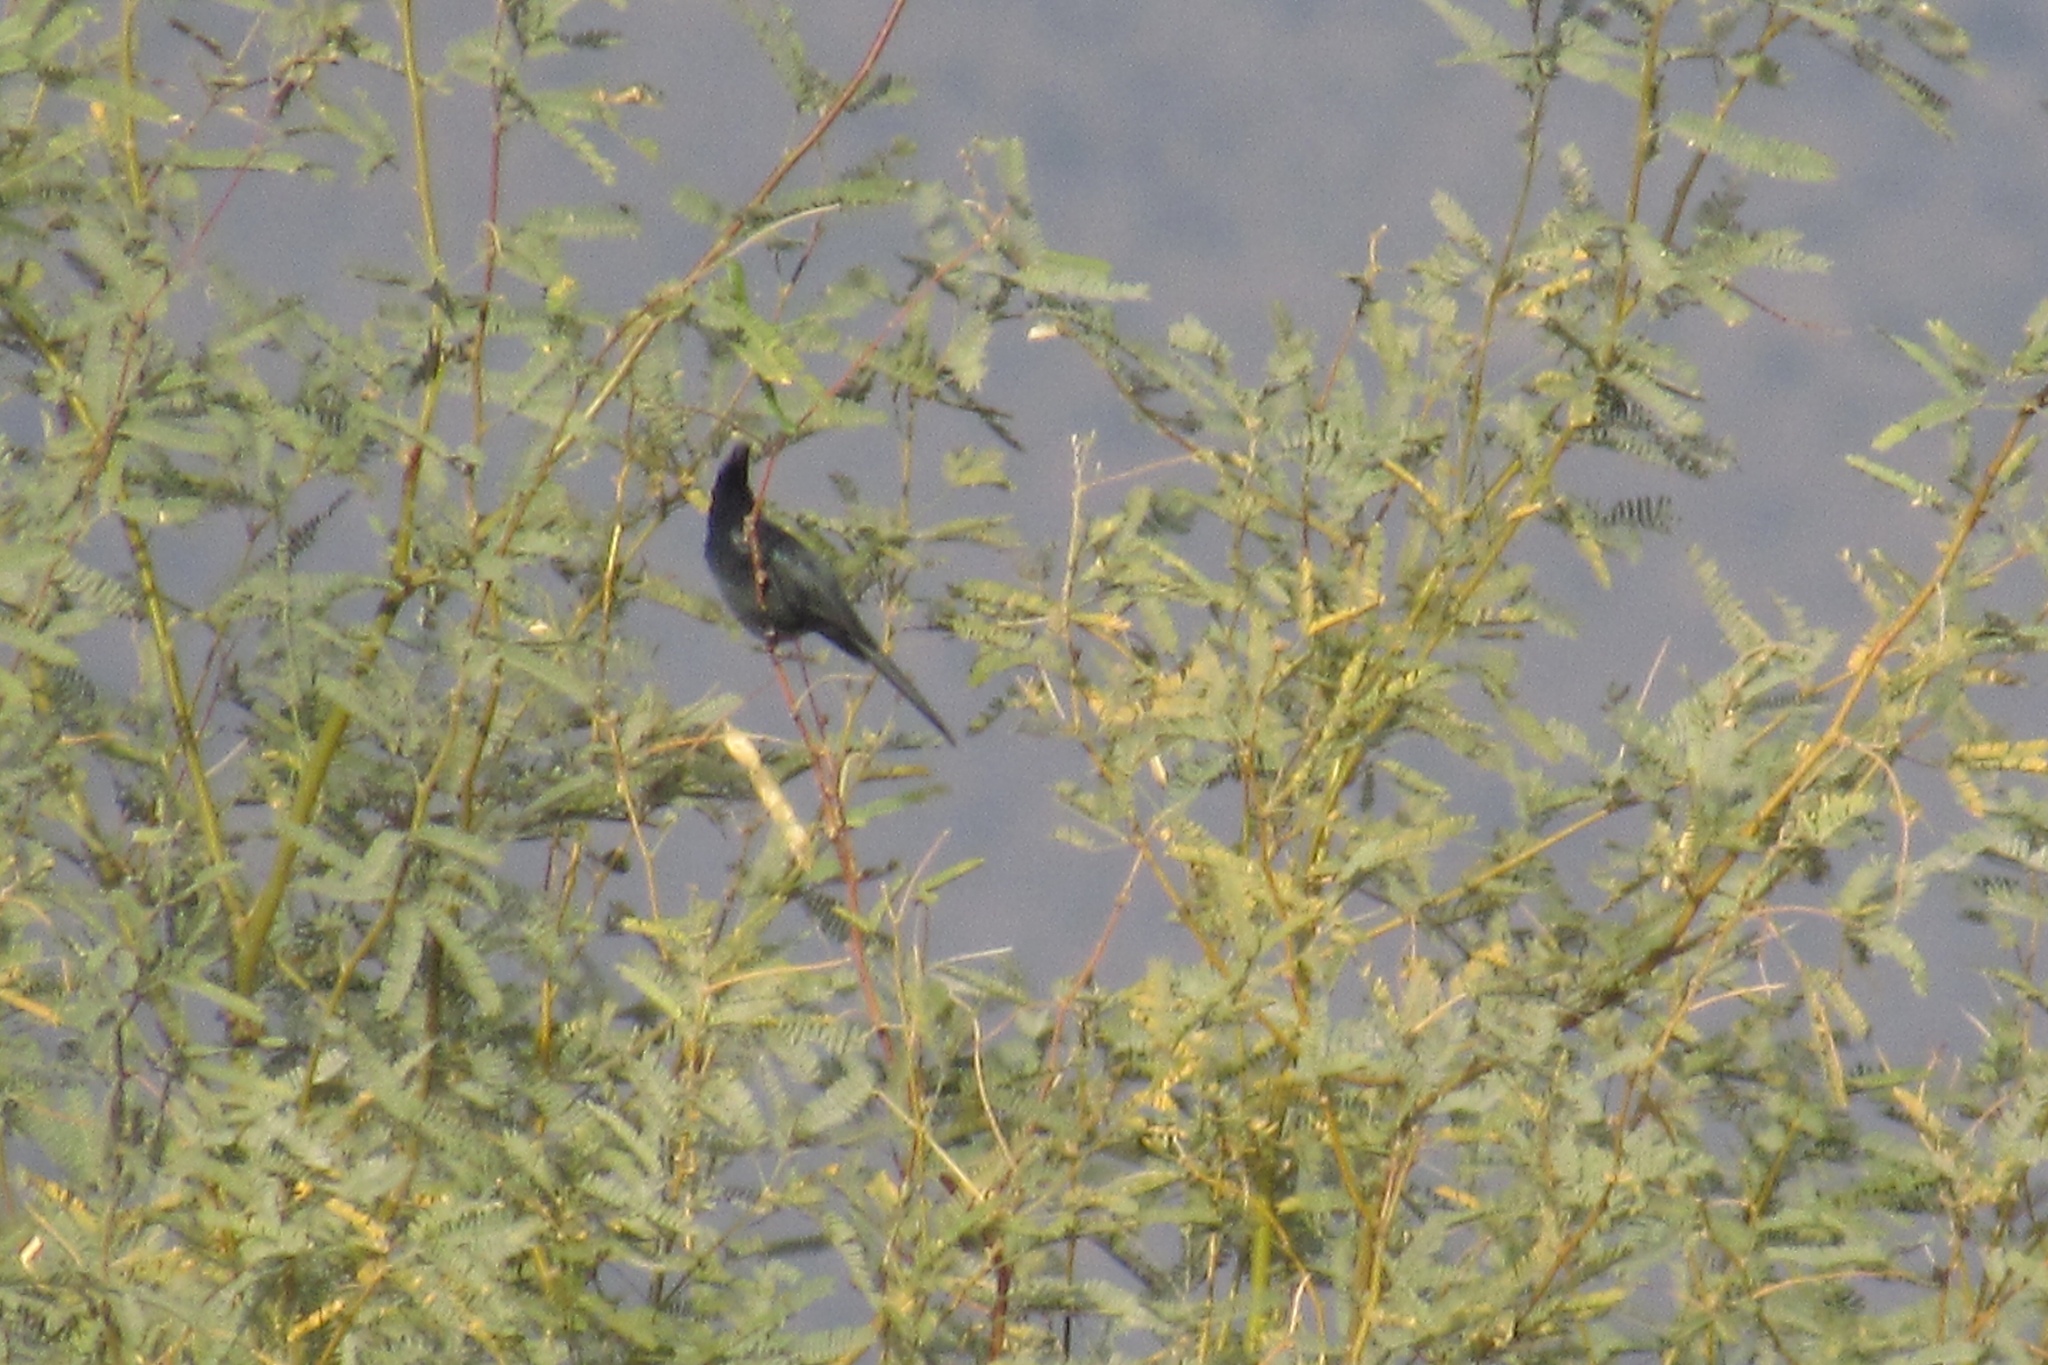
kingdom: Animalia
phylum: Chordata
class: Aves
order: Passeriformes
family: Ptilogonatidae
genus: Phainopepla
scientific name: Phainopepla nitens
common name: Phainopepla
